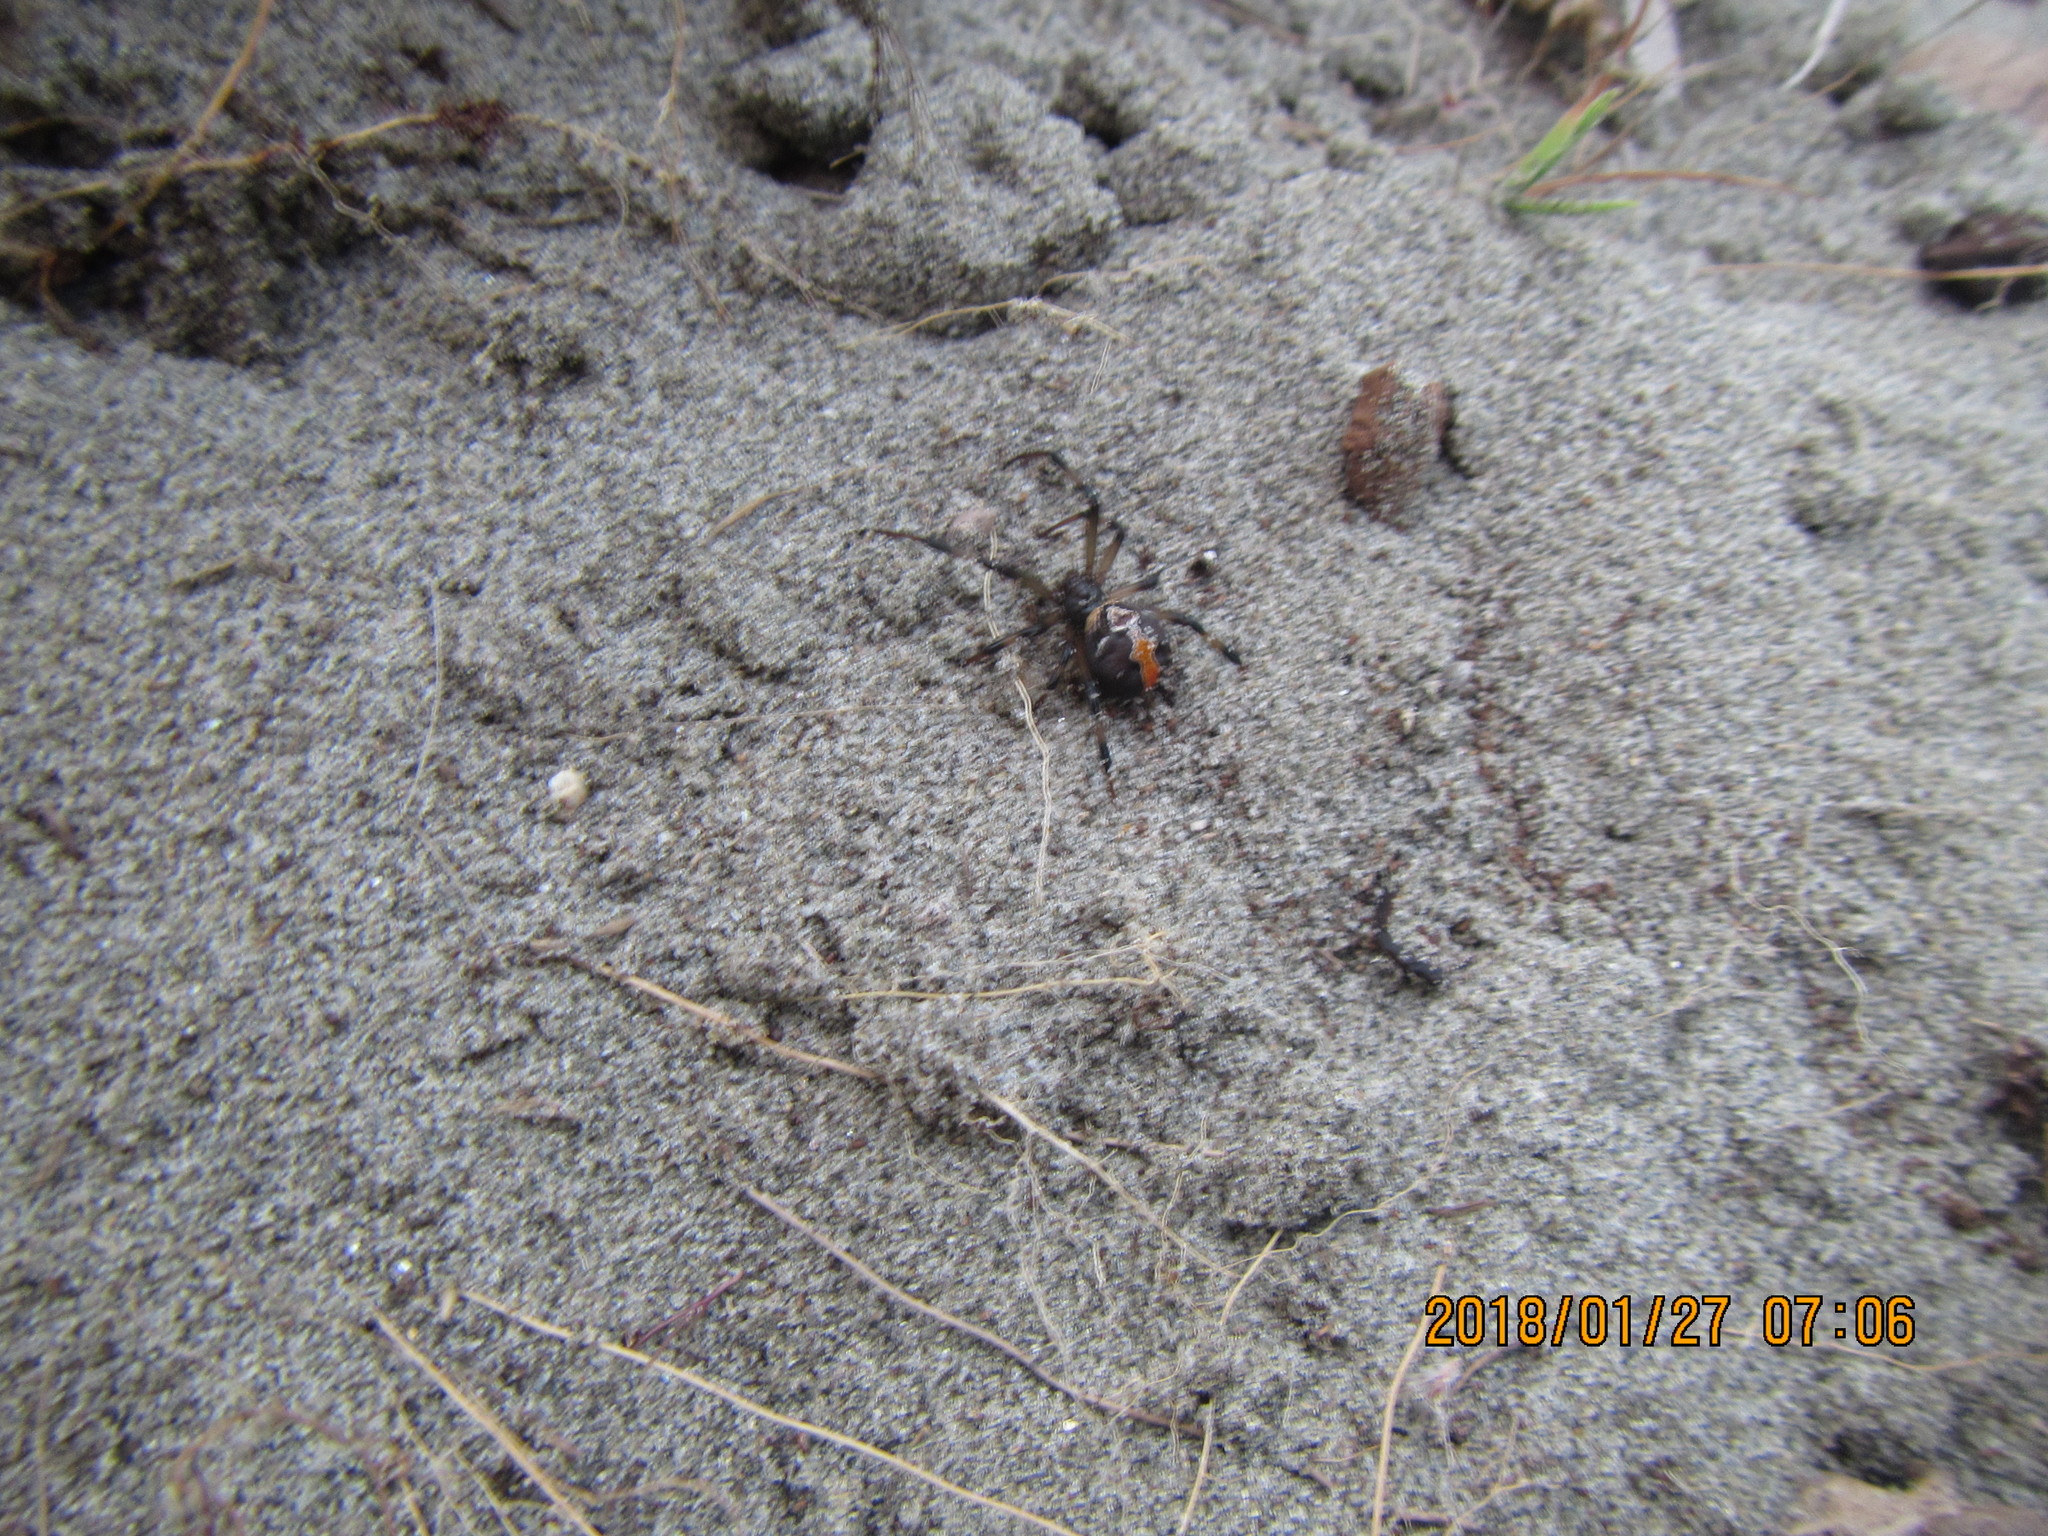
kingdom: Animalia
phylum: Arthropoda
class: Arachnida
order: Araneae
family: Theridiidae
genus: Latrodectus
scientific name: Latrodectus katipo
